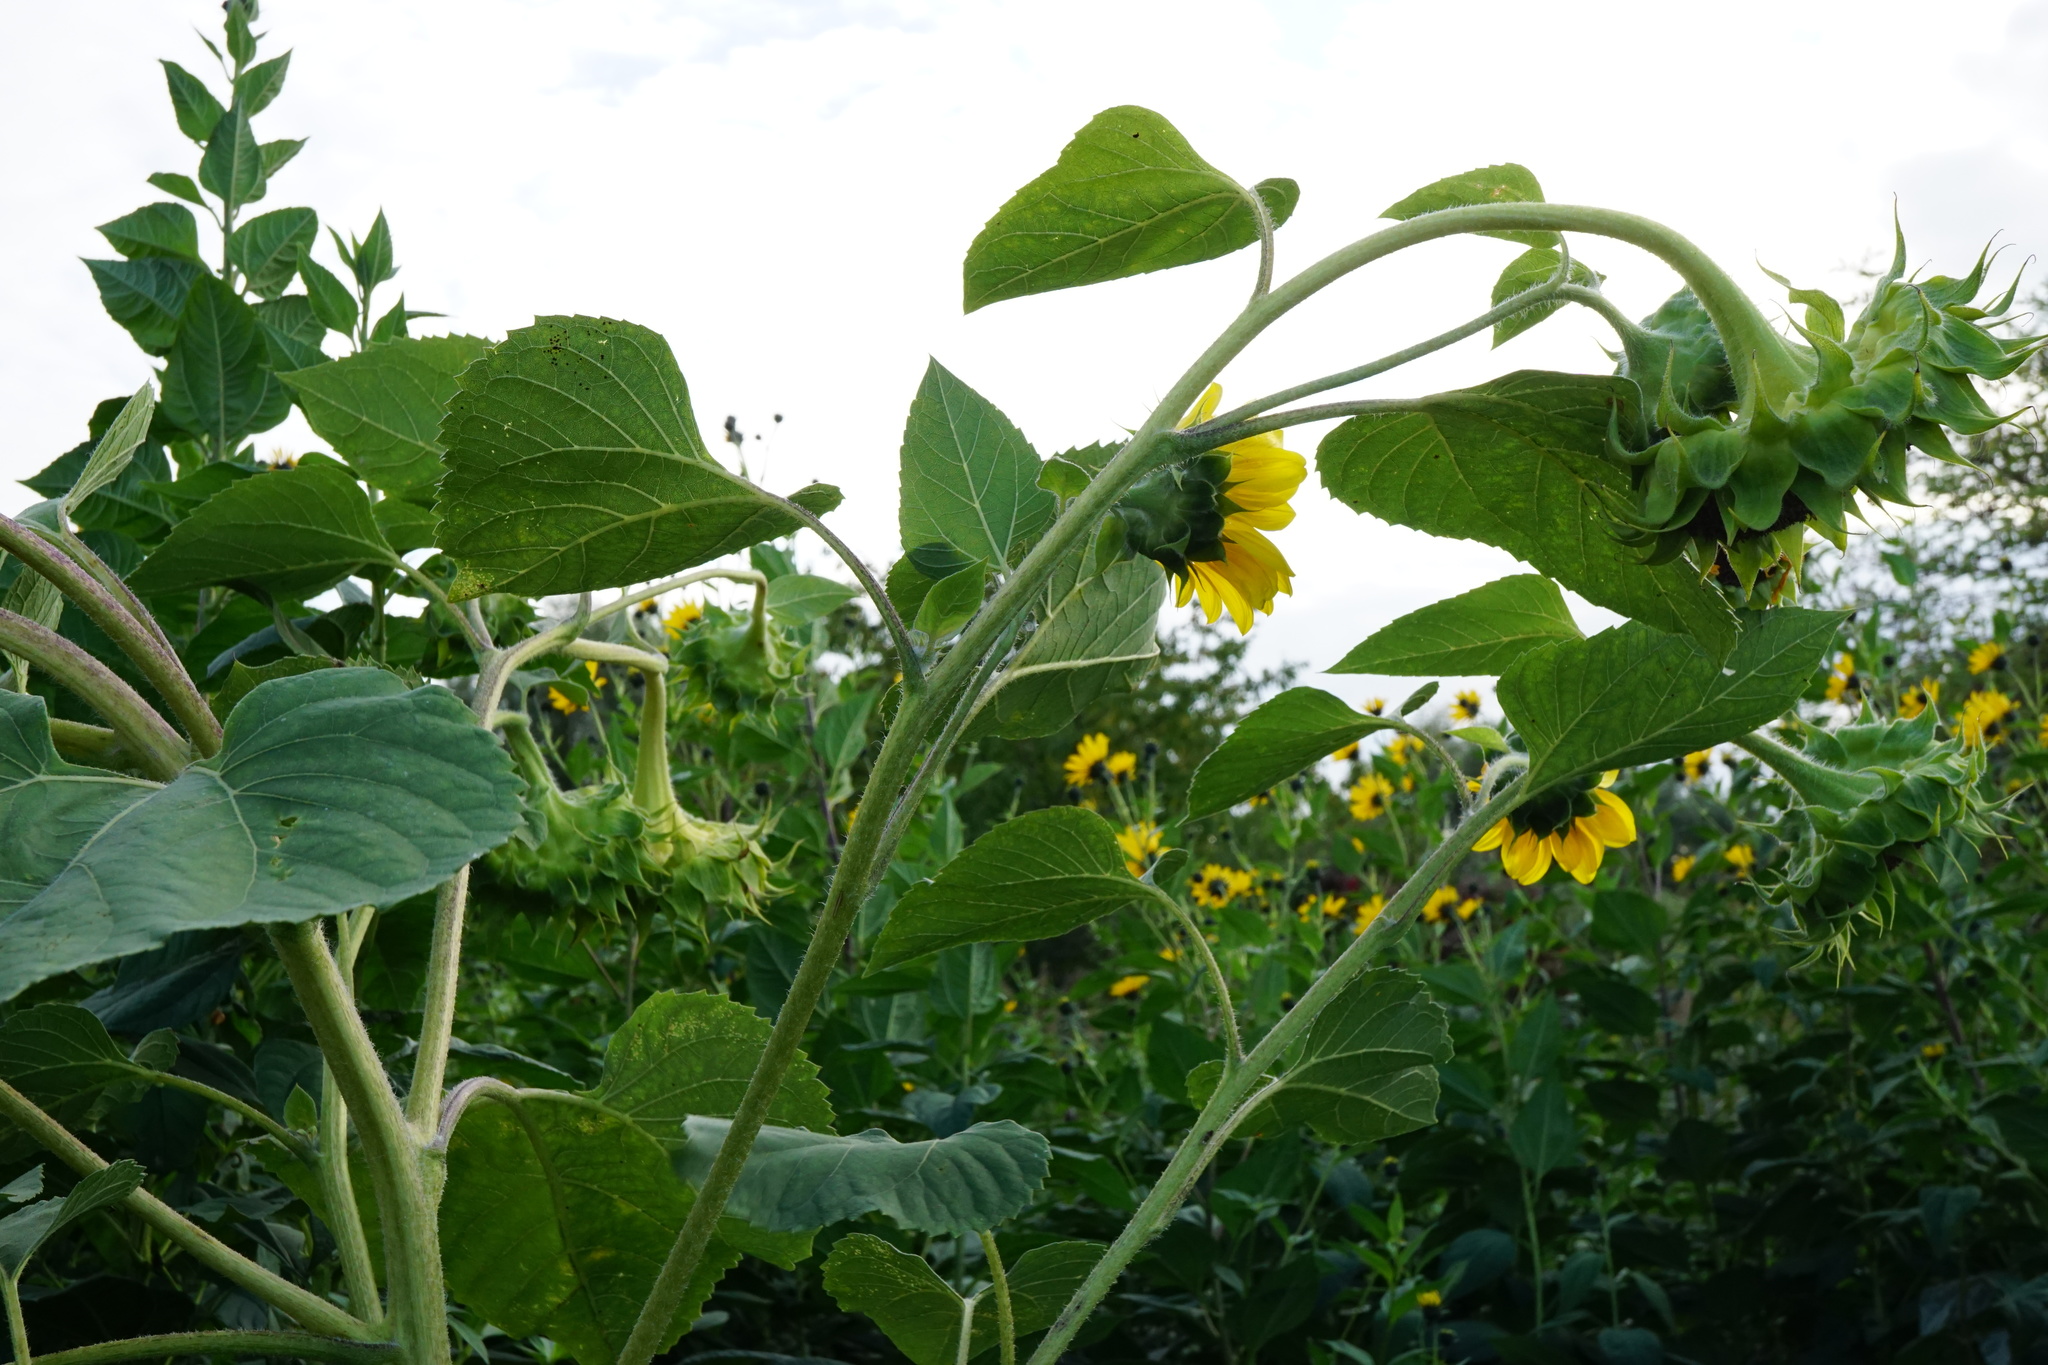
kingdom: Plantae
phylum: Tracheophyta
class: Magnoliopsida
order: Asterales
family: Asteraceae
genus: Helianthus
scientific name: Helianthus annuus
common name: Sunflower
